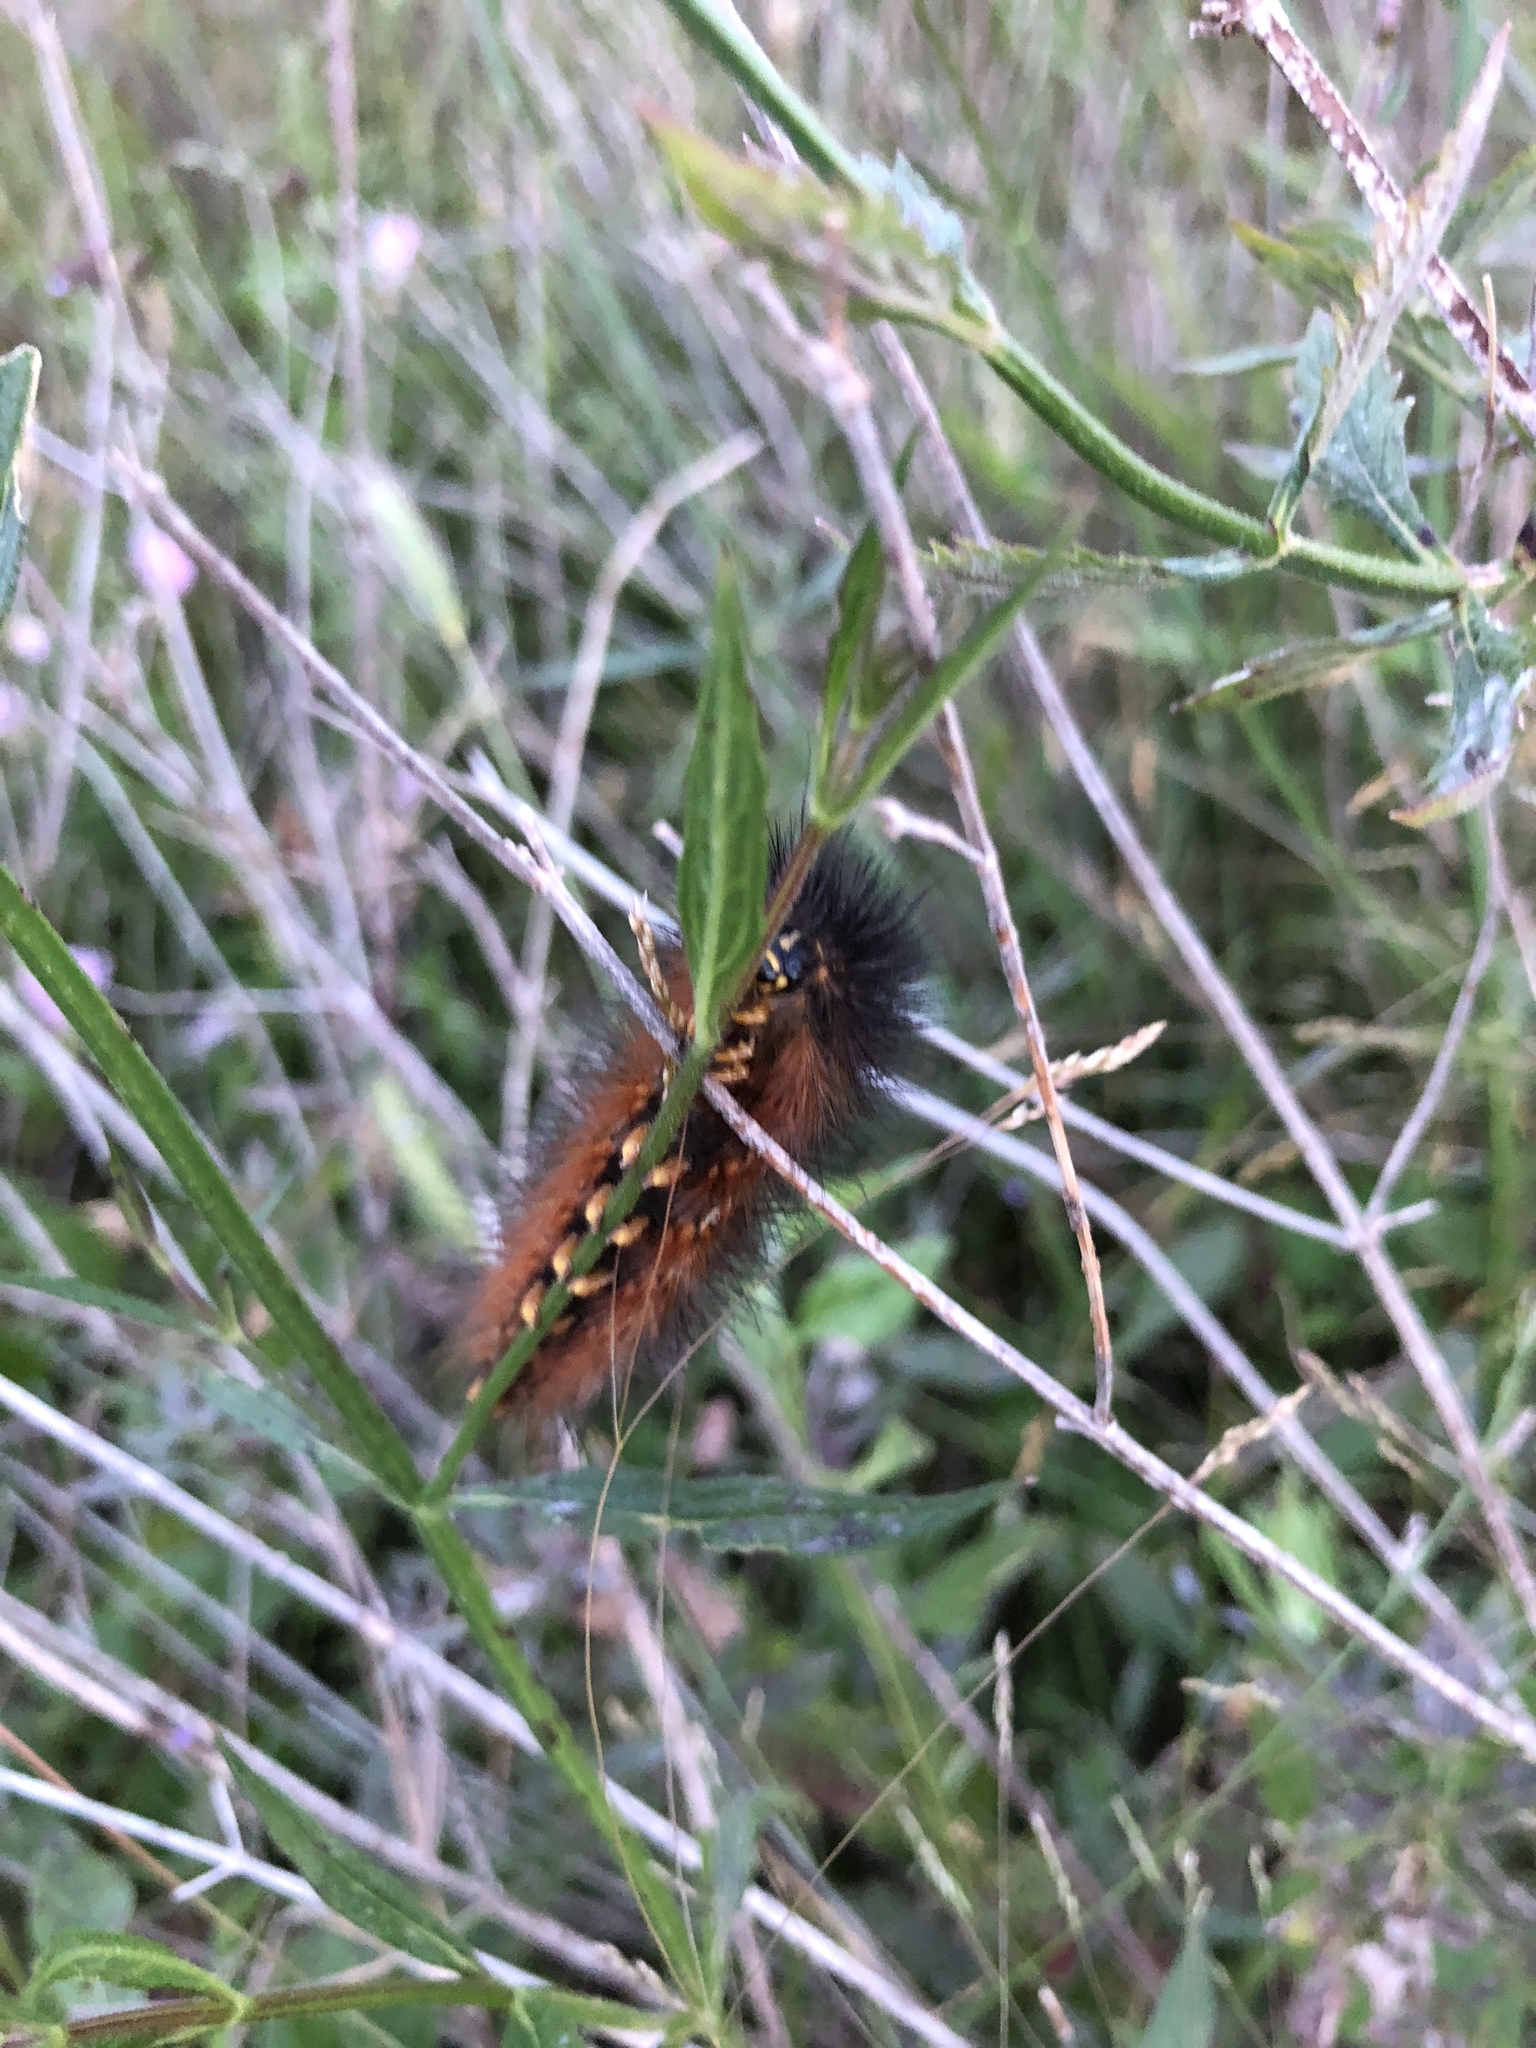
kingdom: Animalia
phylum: Arthropoda
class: Insecta
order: Lepidoptera
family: Erebidae
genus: Estigmene
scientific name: Estigmene acrea
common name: Salt marsh moth
